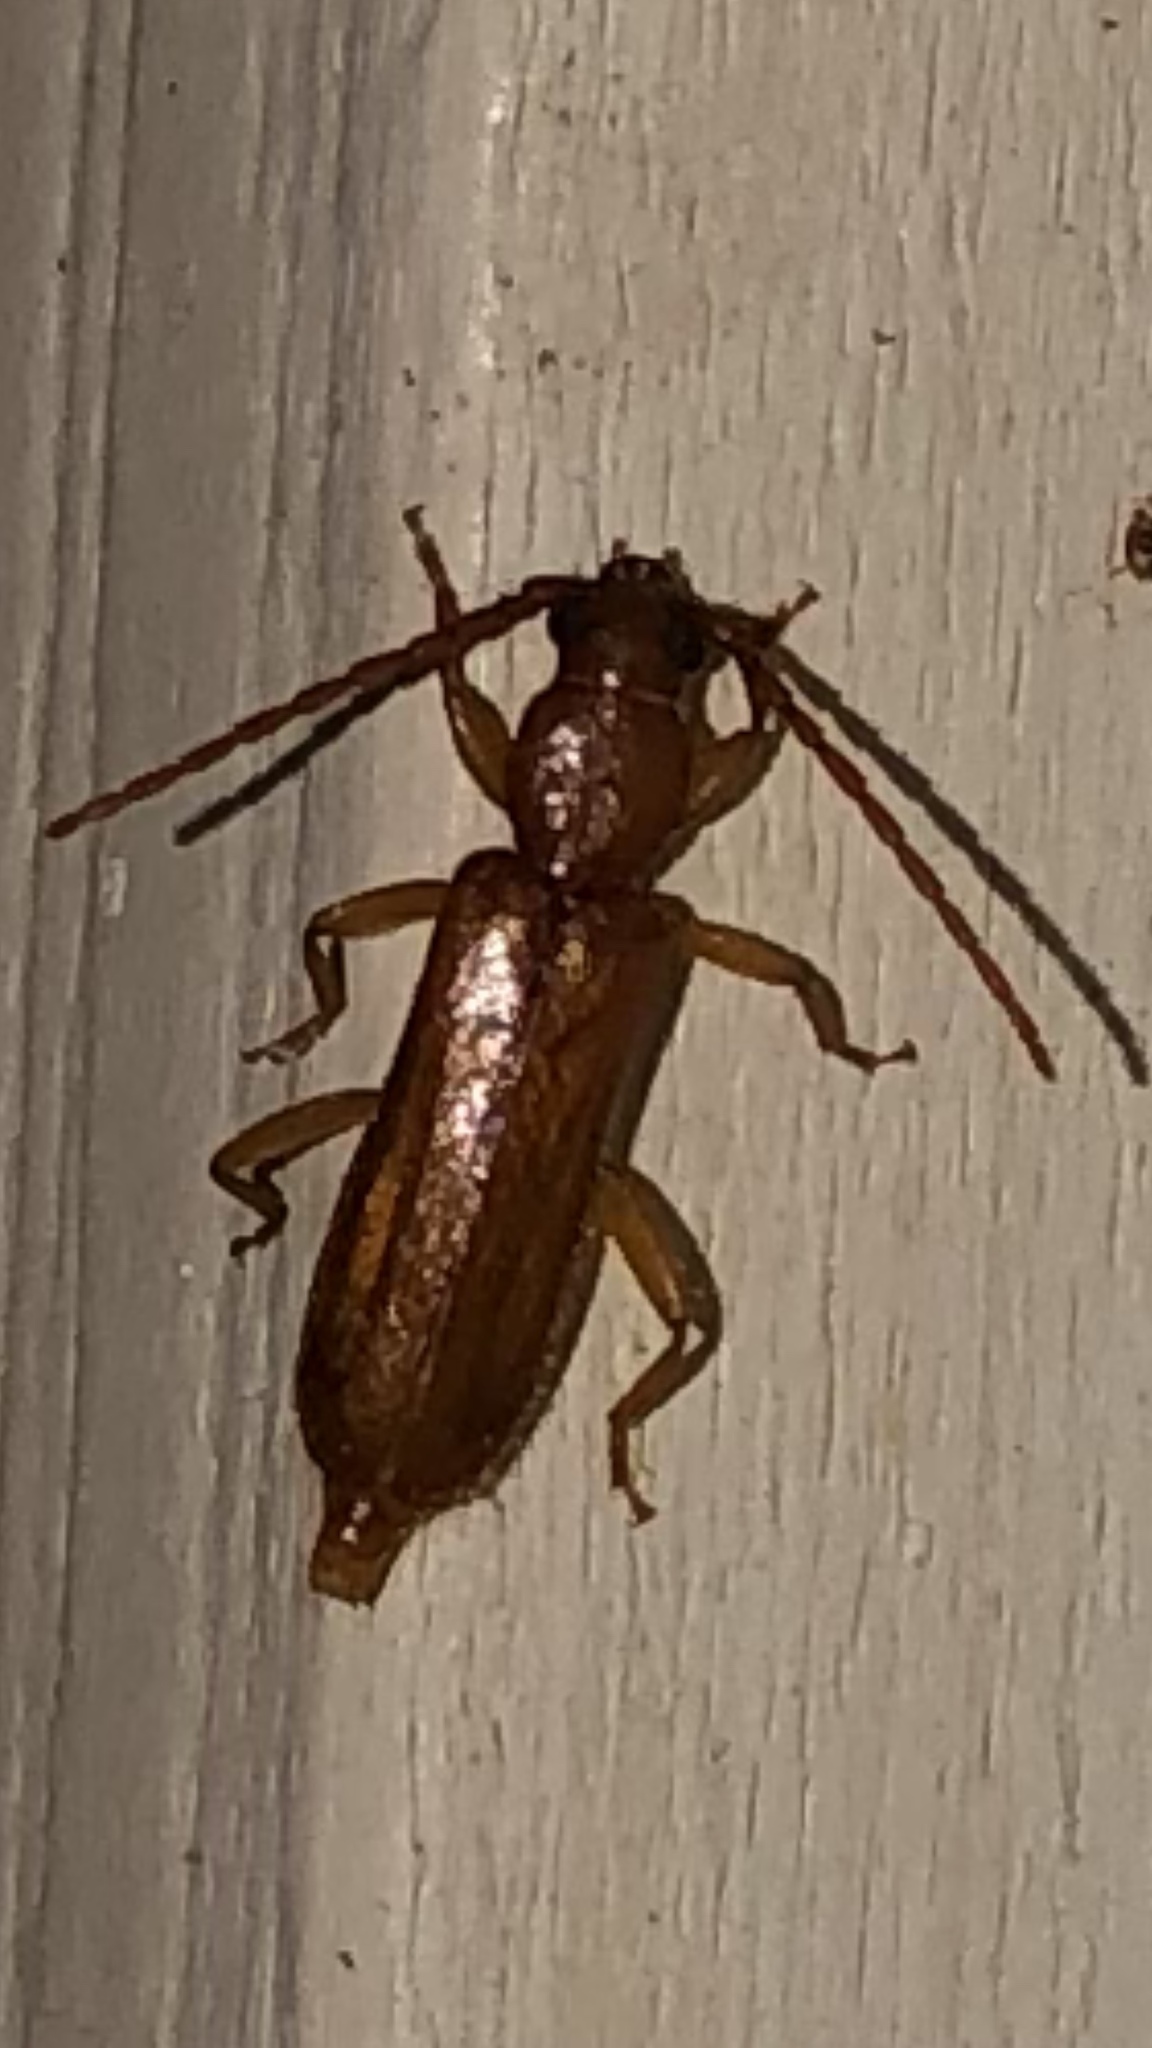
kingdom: Animalia
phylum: Arthropoda
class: Insecta
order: Coleoptera
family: Cerambycidae
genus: Smodicum
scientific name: Smodicum cucujiforme
